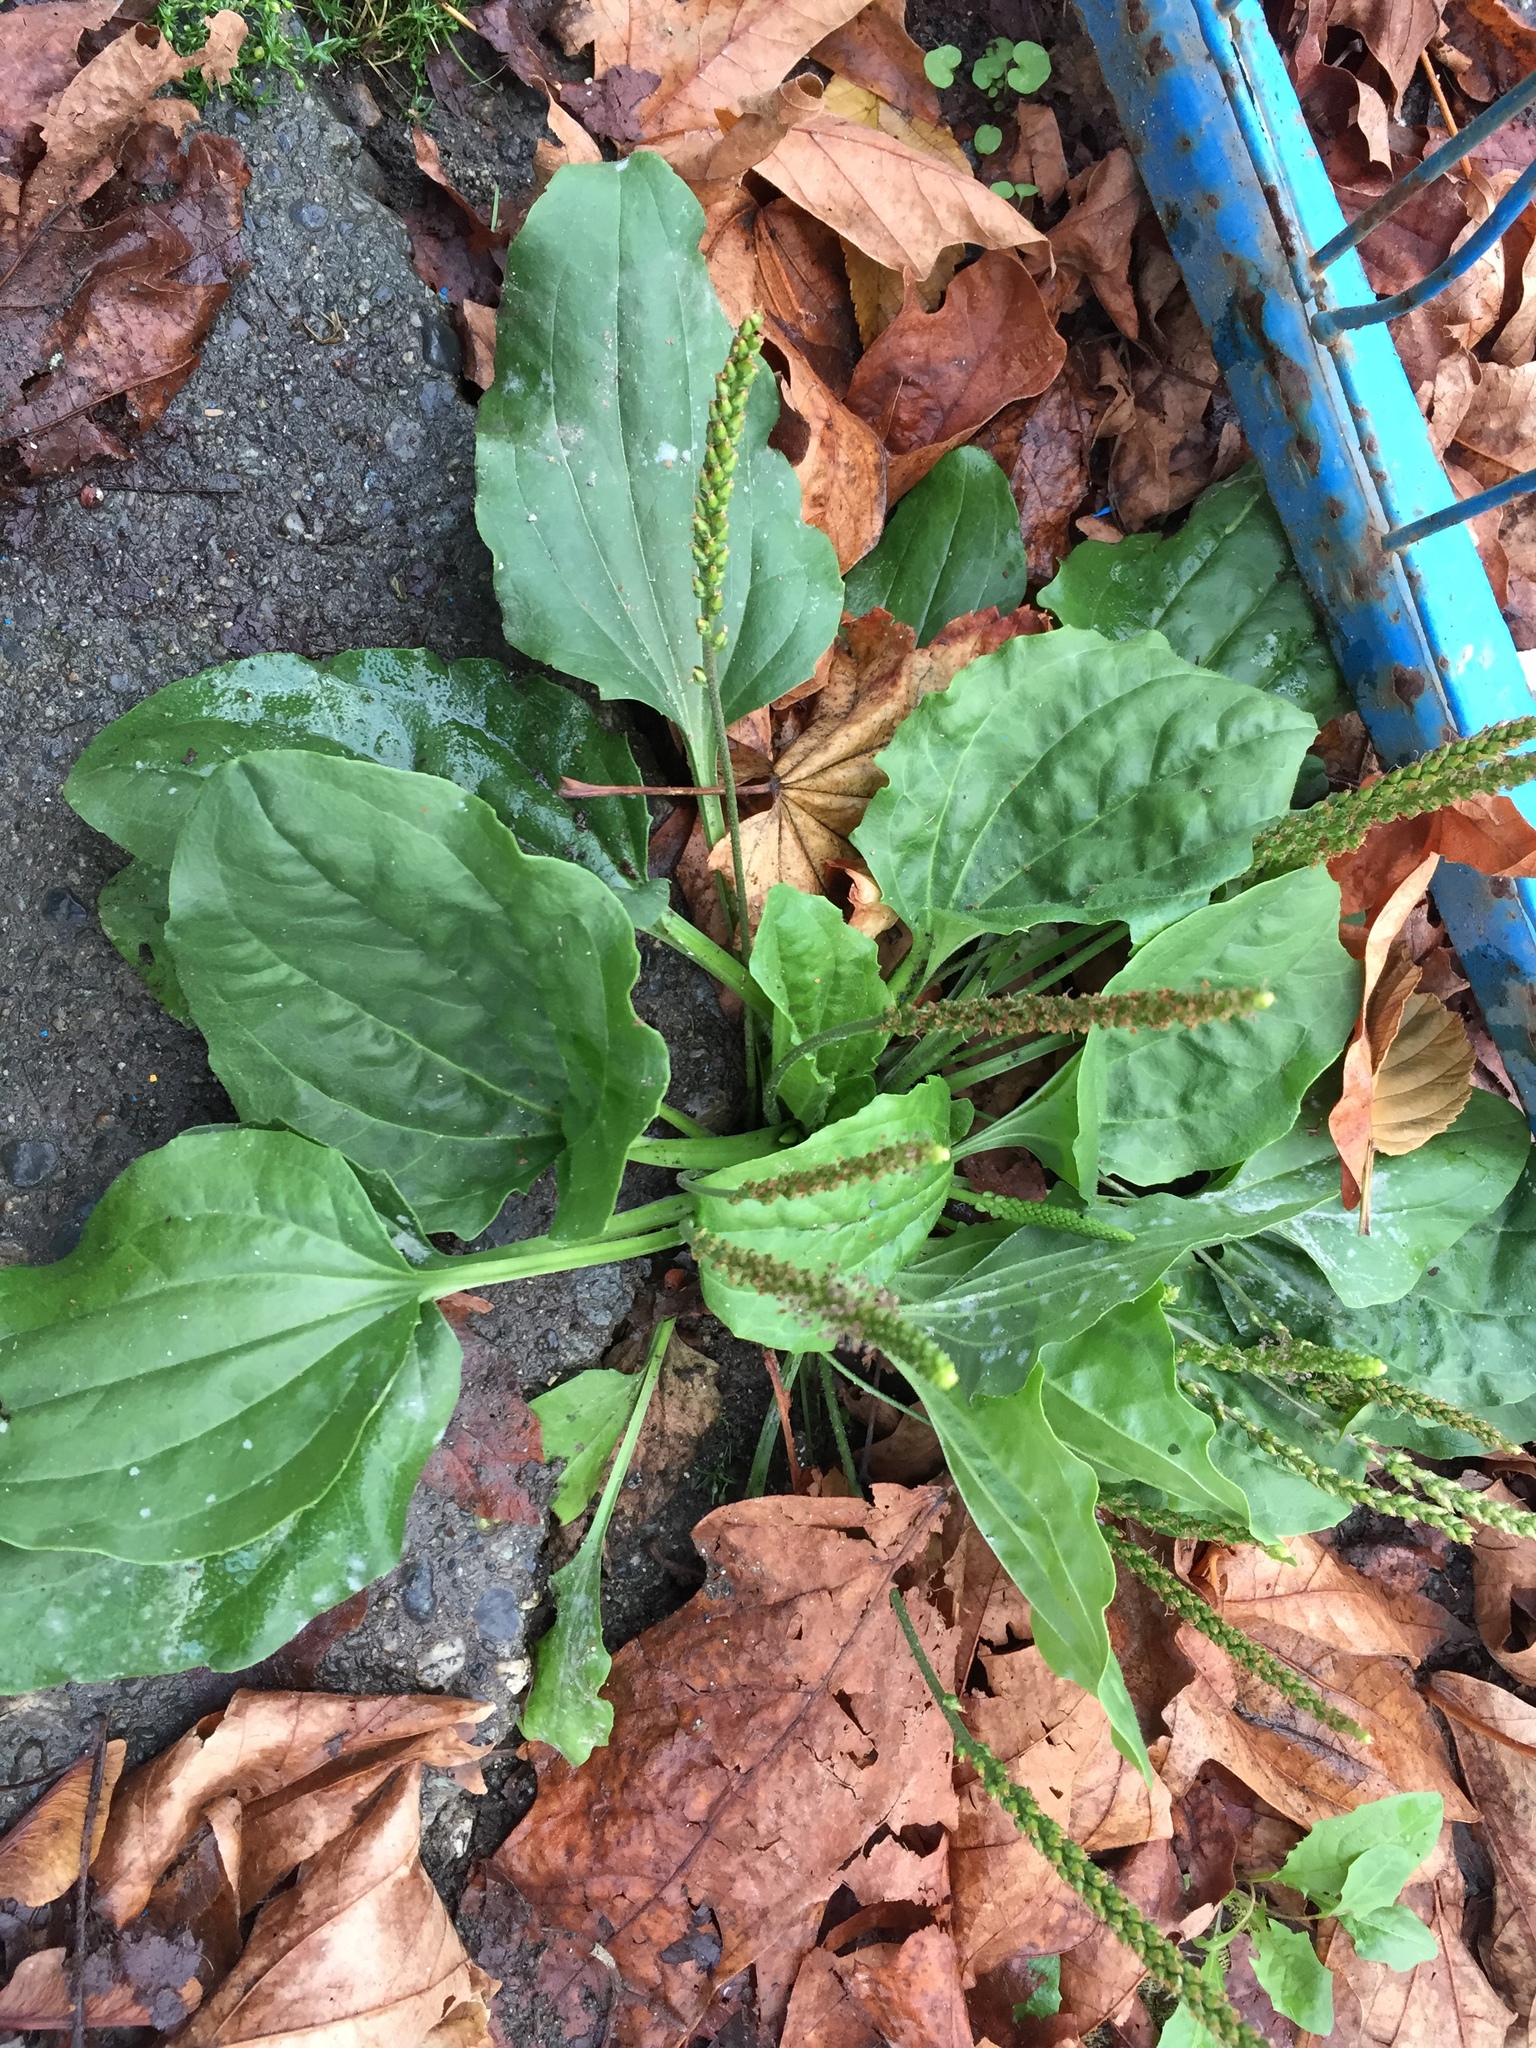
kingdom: Plantae
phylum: Tracheophyta
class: Magnoliopsida
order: Lamiales
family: Plantaginaceae
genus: Plantago
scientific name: Plantago major
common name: Common plantain
